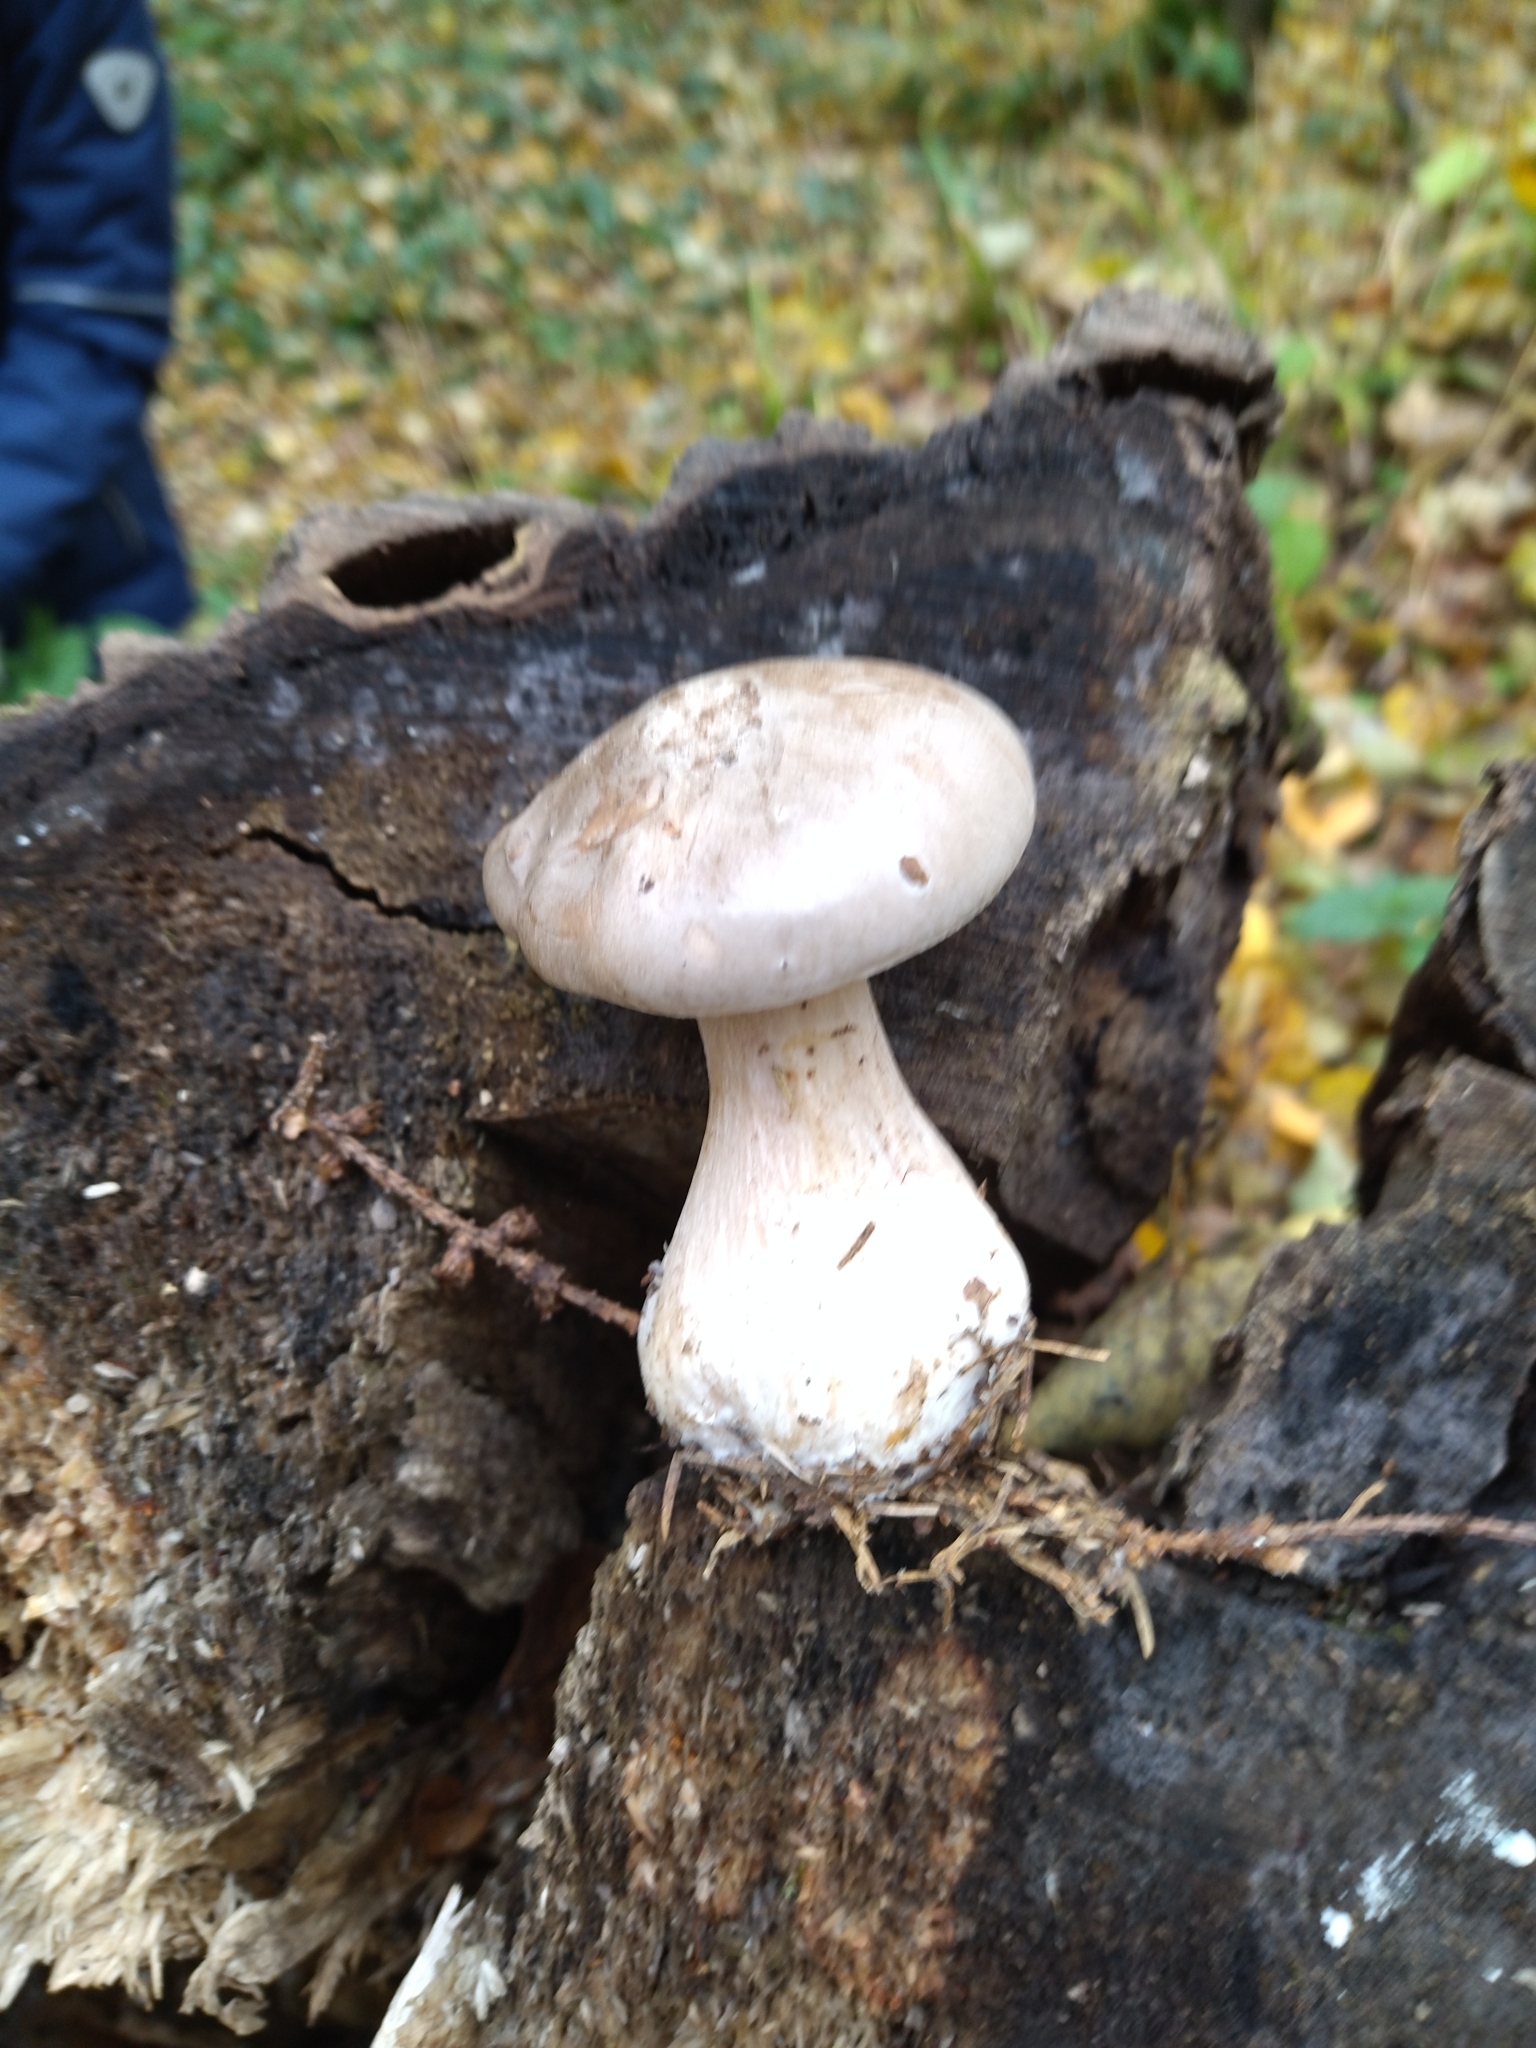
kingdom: Fungi
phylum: Basidiomycota
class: Agaricomycetes
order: Agaricales
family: Pleurotaceae
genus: Pleurotus
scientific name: Pleurotus dryinus
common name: Veiled oyster
